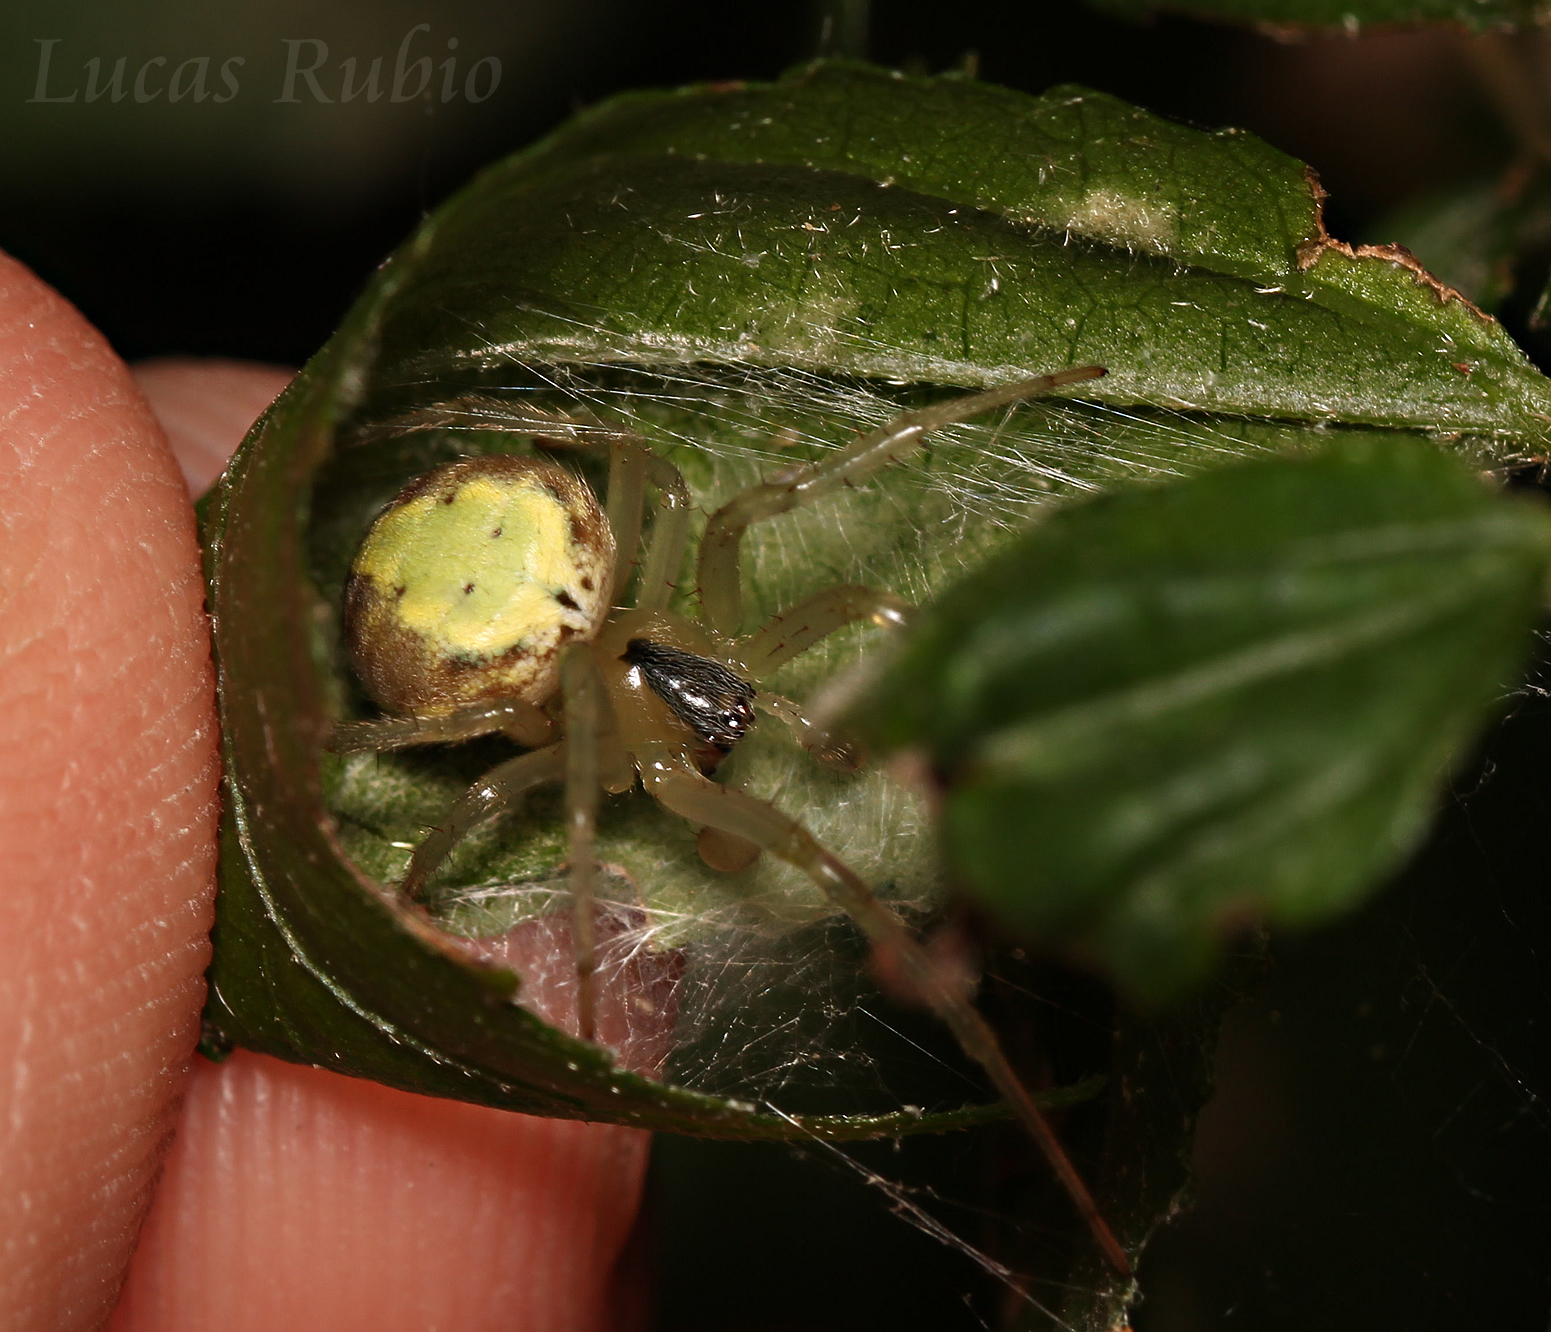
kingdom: Animalia
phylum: Arthropoda
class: Arachnida
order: Araneae
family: Araneidae
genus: Araneus
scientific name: Araneus workmani
